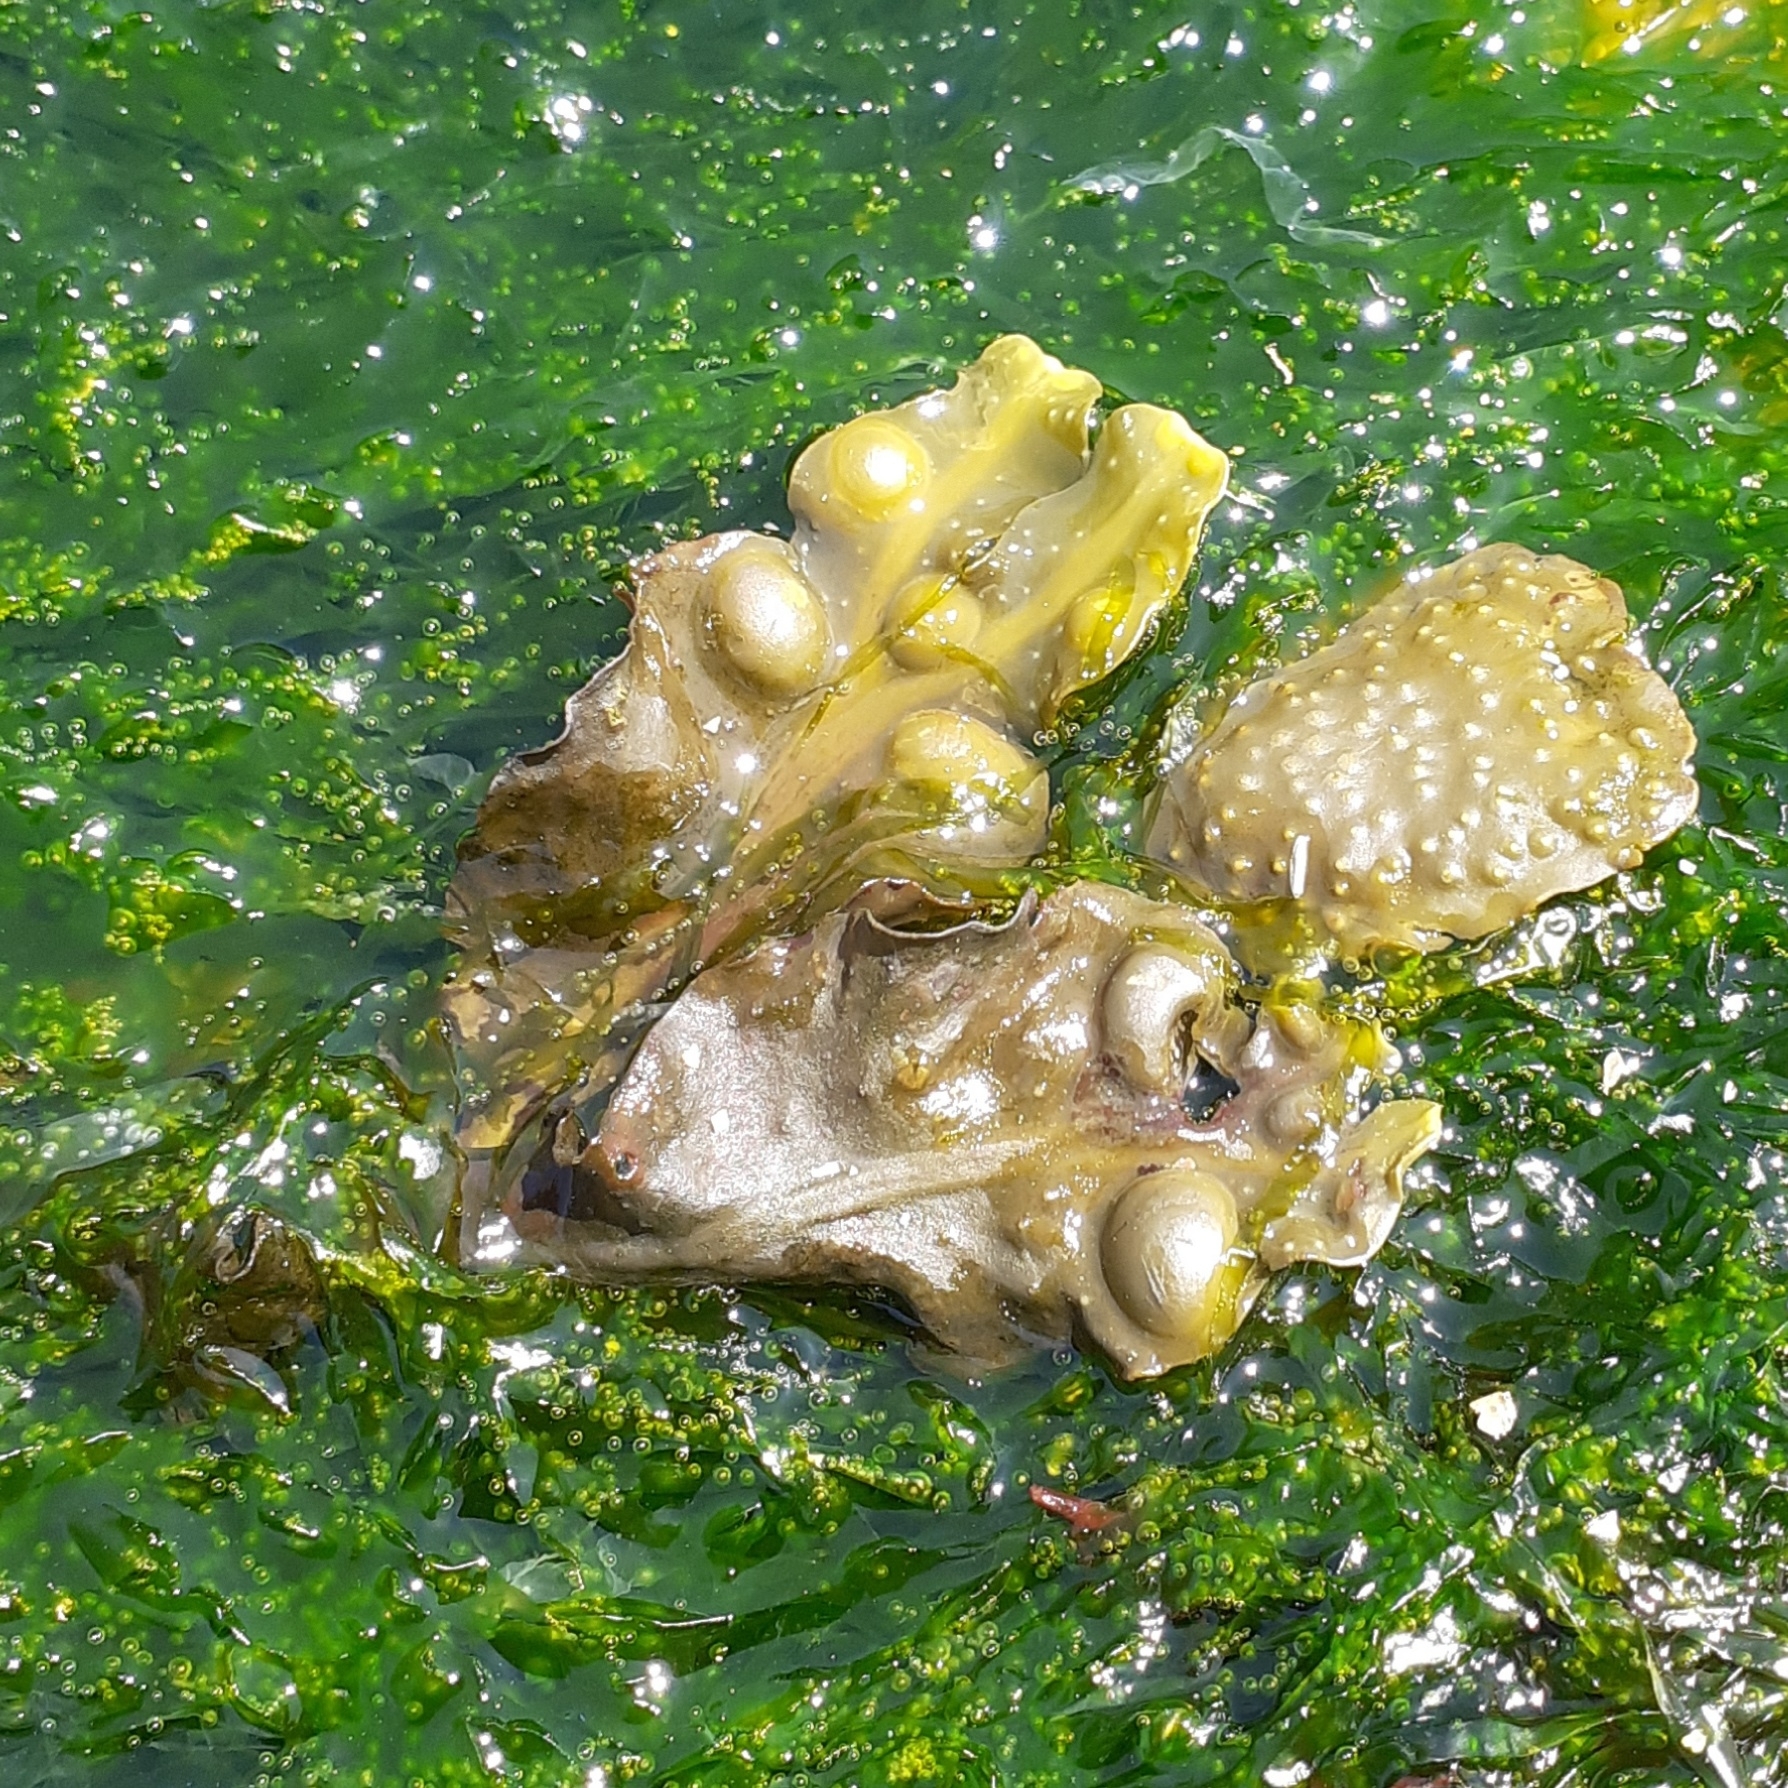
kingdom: Chromista
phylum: Ochrophyta
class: Phaeophyceae
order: Fucales
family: Fucaceae
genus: Fucus
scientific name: Fucus vesiculosus
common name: Bladder wrack
